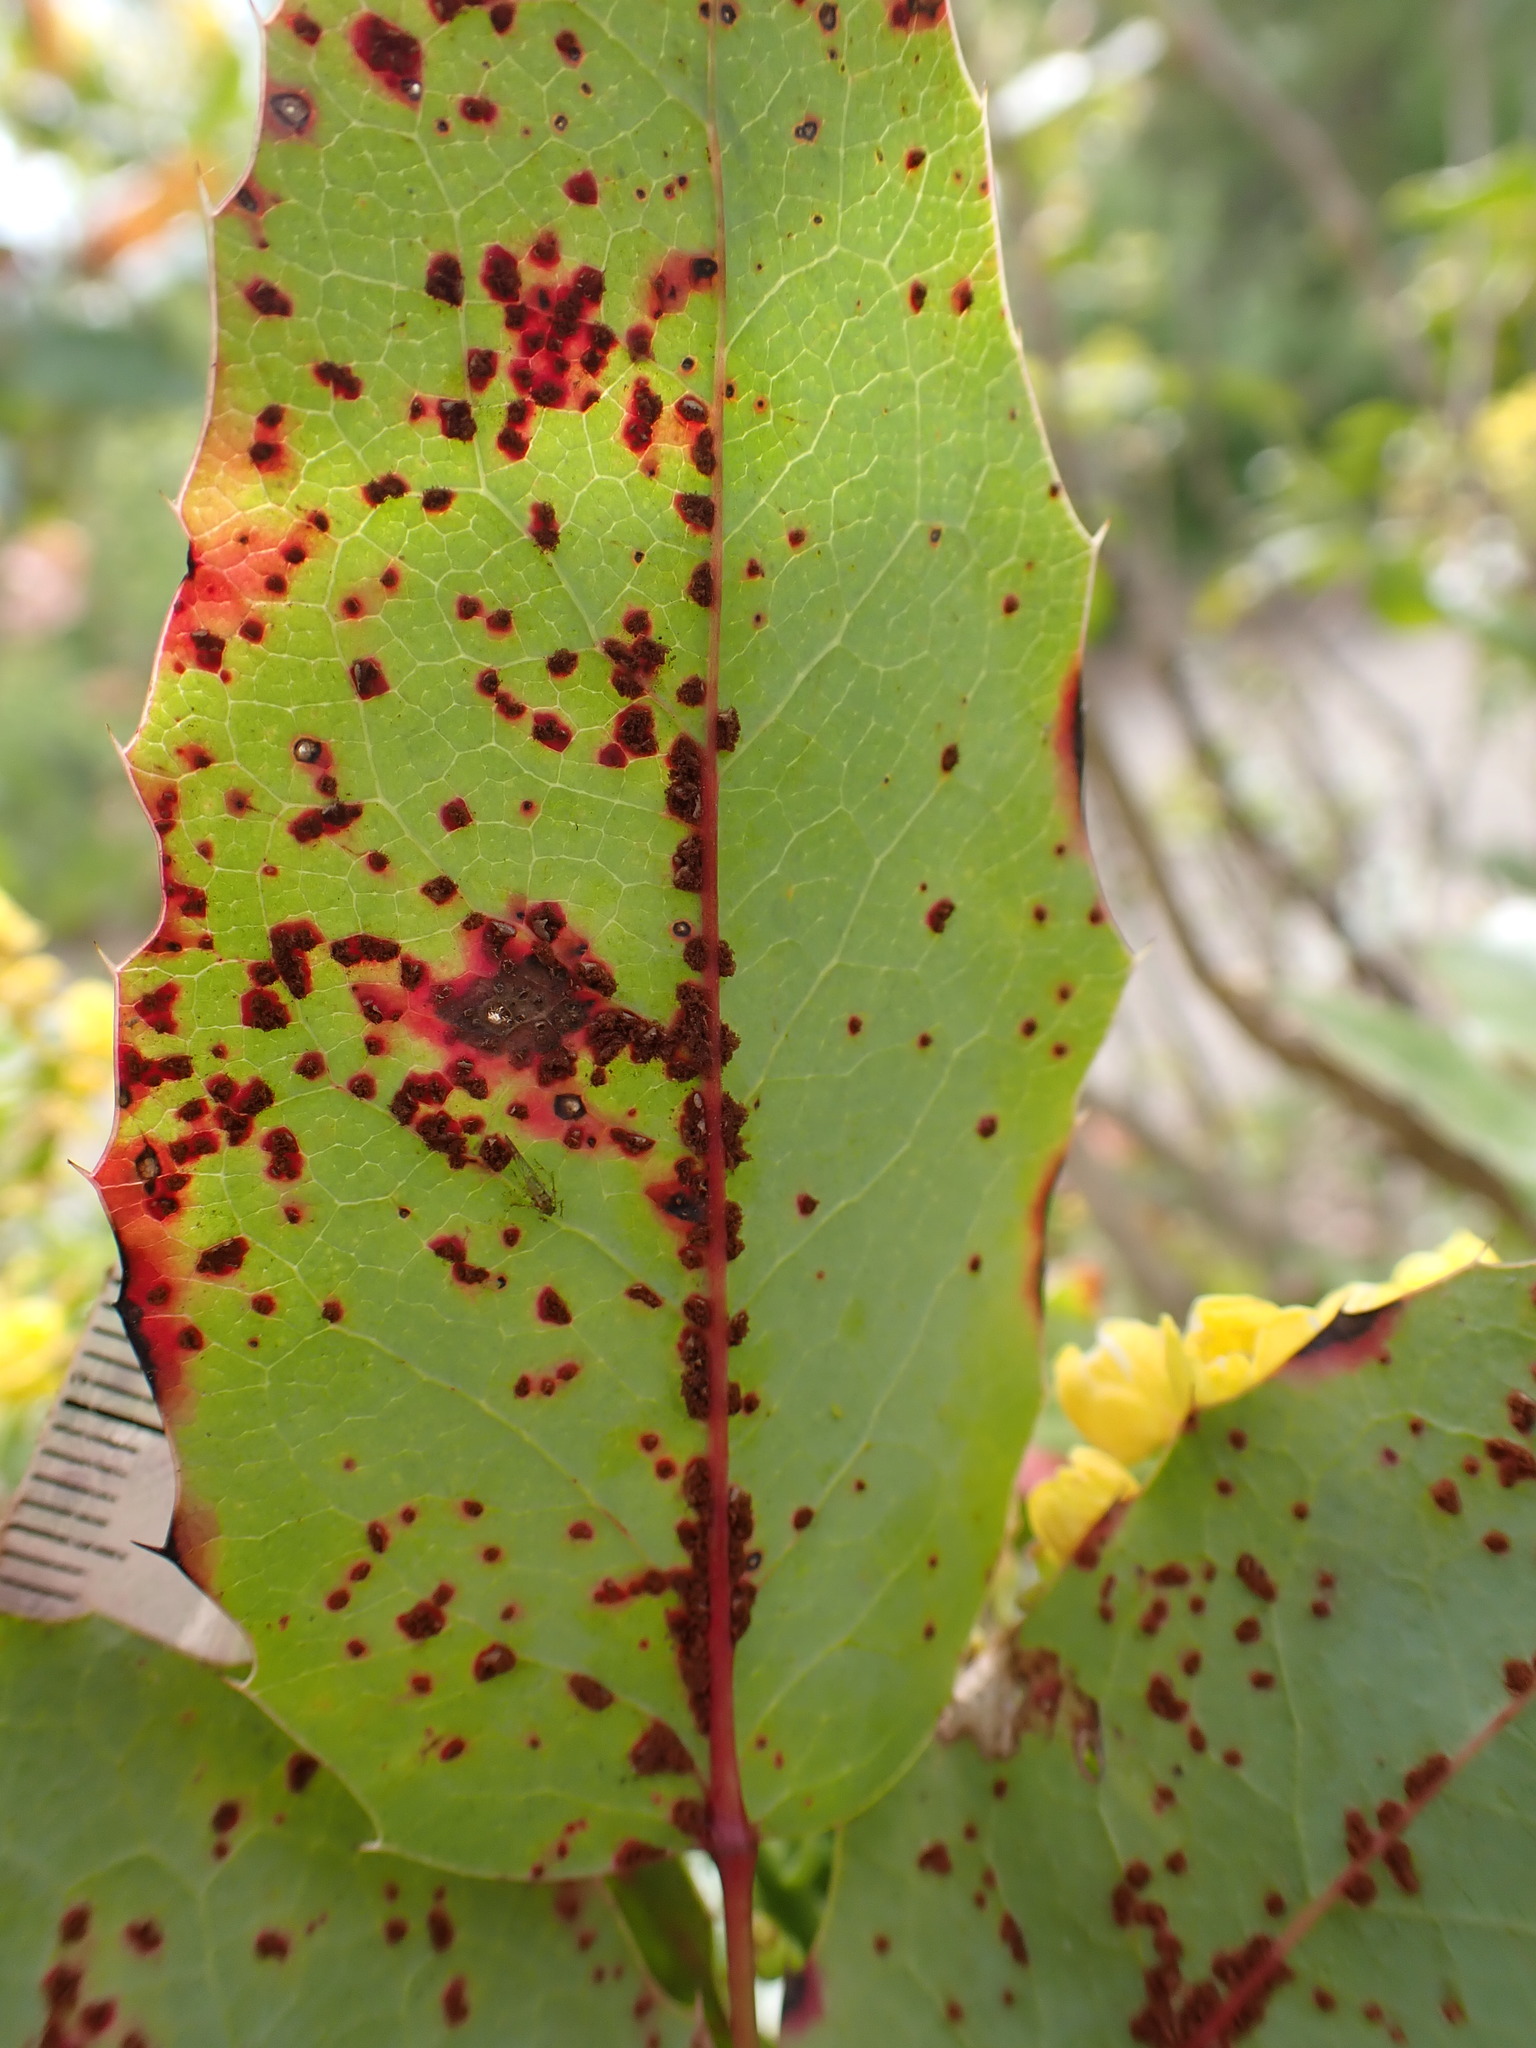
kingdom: Fungi
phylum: Basidiomycota
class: Pucciniomycetes
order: Pucciniales
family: Pucciniaceae
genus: Cumminsiella
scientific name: Cumminsiella mirabilissima
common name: Mahonia rust
